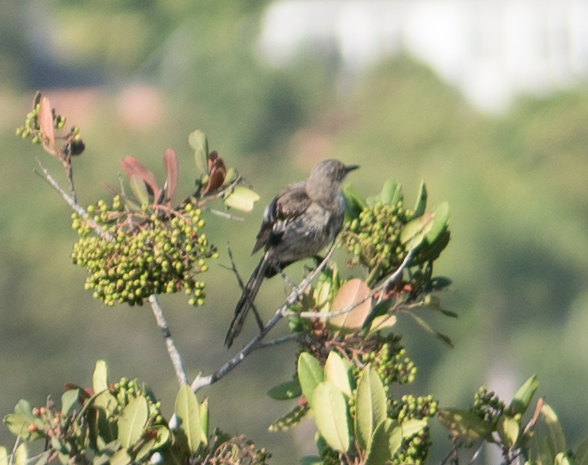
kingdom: Animalia
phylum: Chordata
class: Aves
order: Passeriformes
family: Mimidae
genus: Mimus
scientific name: Mimus polyglottos
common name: Northern mockingbird
